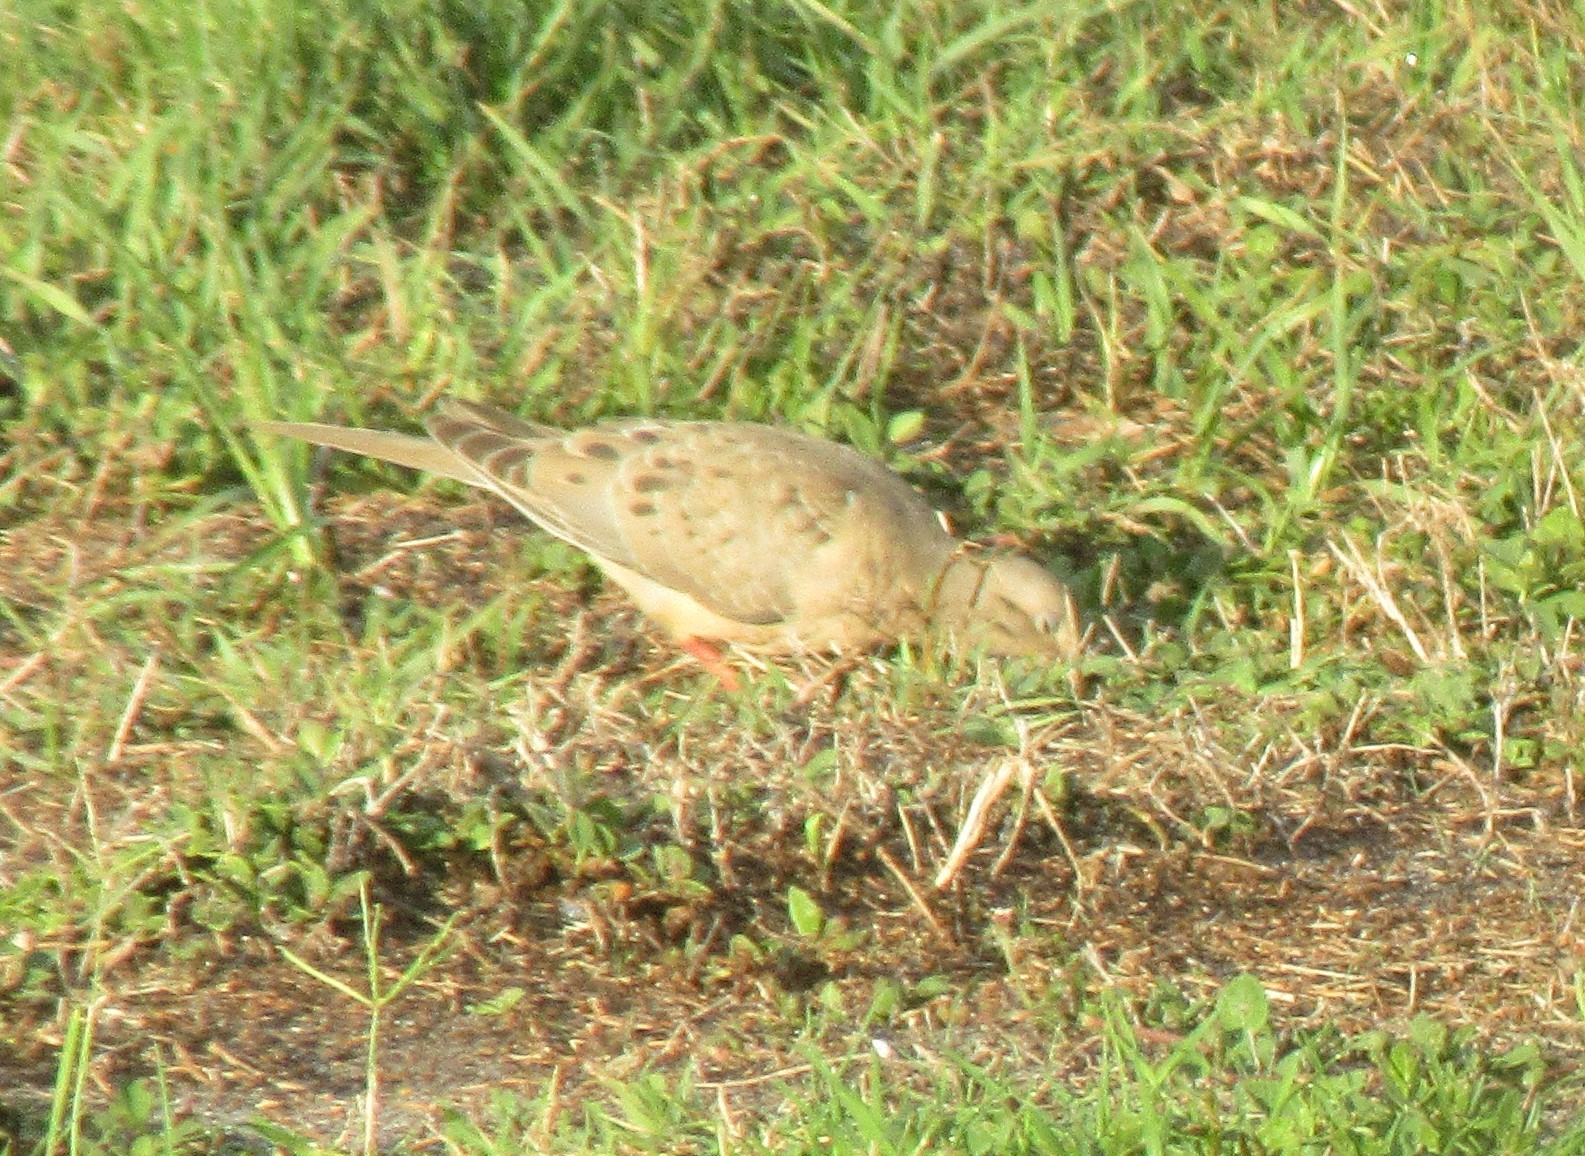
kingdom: Animalia
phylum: Chordata
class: Aves
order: Columbiformes
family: Columbidae
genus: Zenaida
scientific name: Zenaida macroura
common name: Mourning dove
